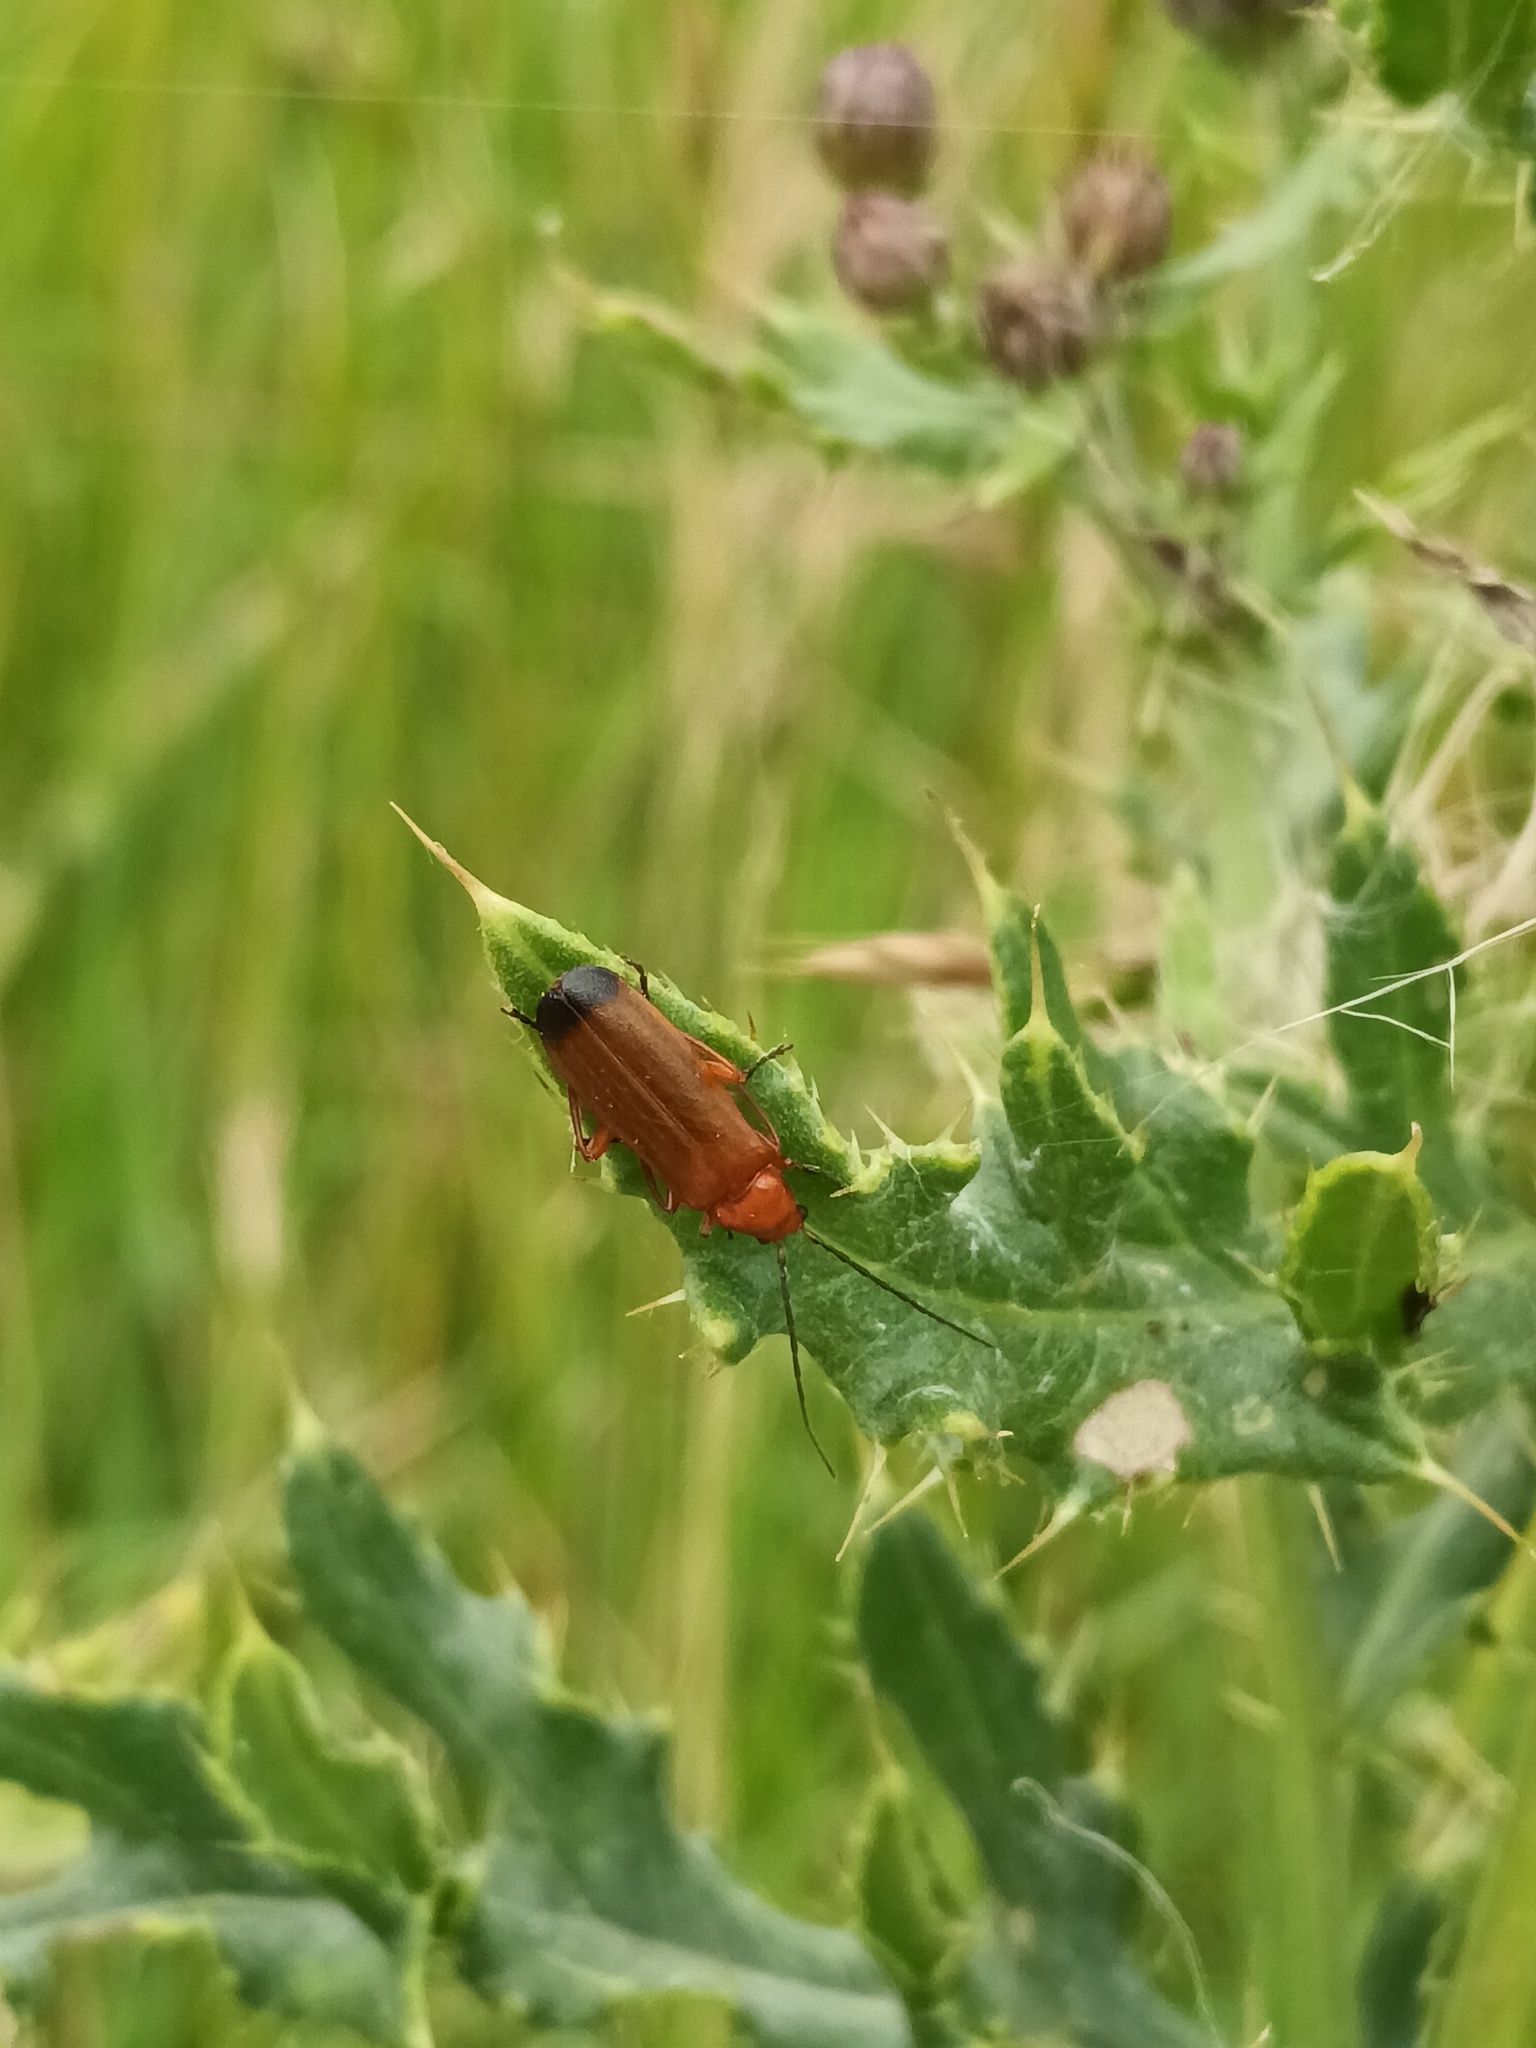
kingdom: Animalia
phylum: Arthropoda
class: Insecta
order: Coleoptera
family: Cantharidae
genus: Rhagonycha
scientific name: Rhagonycha fulva
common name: Common red soldier beetle
